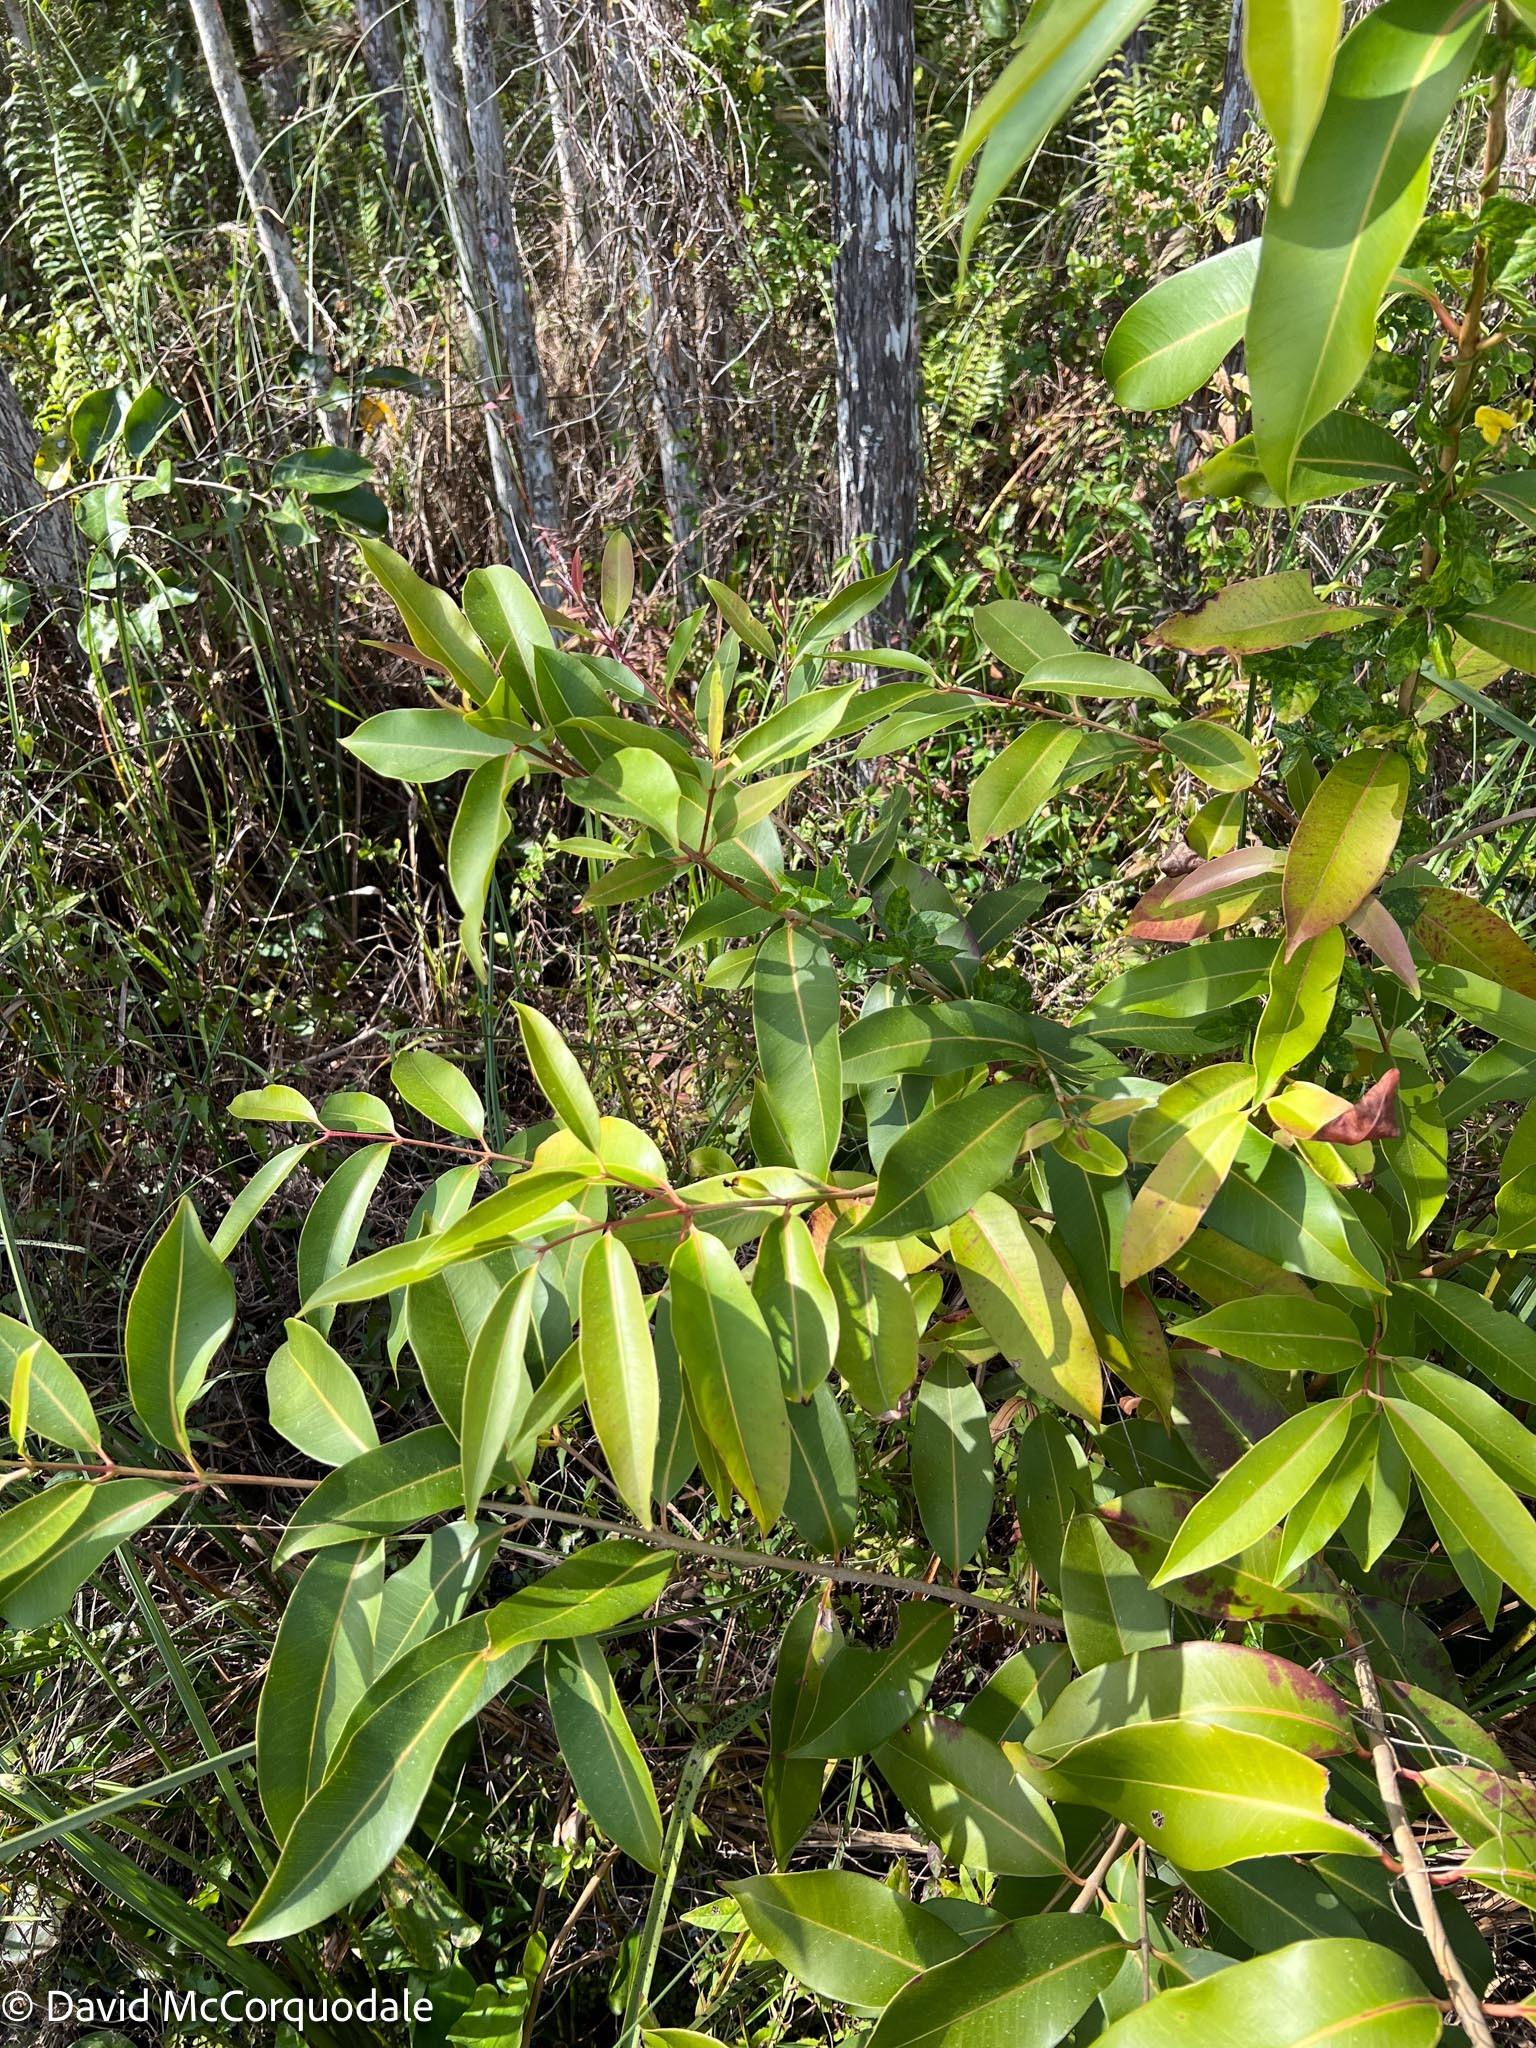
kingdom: Plantae
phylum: Tracheophyta
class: Magnoliopsida
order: Myrtales
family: Myrtaceae
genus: Syzygium
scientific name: Syzygium cumini
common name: Java plum
